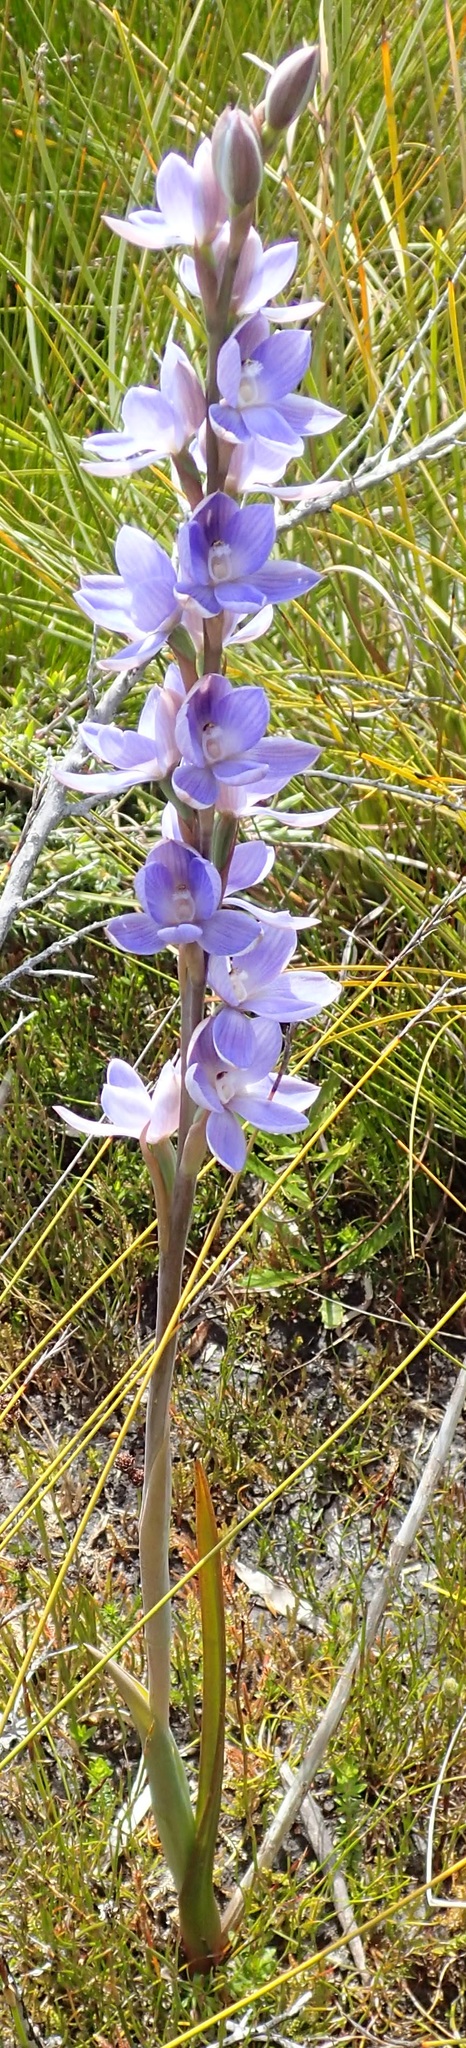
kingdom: Plantae
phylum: Tracheophyta
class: Liliopsida
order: Asparagales
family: Orchidaceae
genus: Thelymitra
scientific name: Thelymitra aristata
